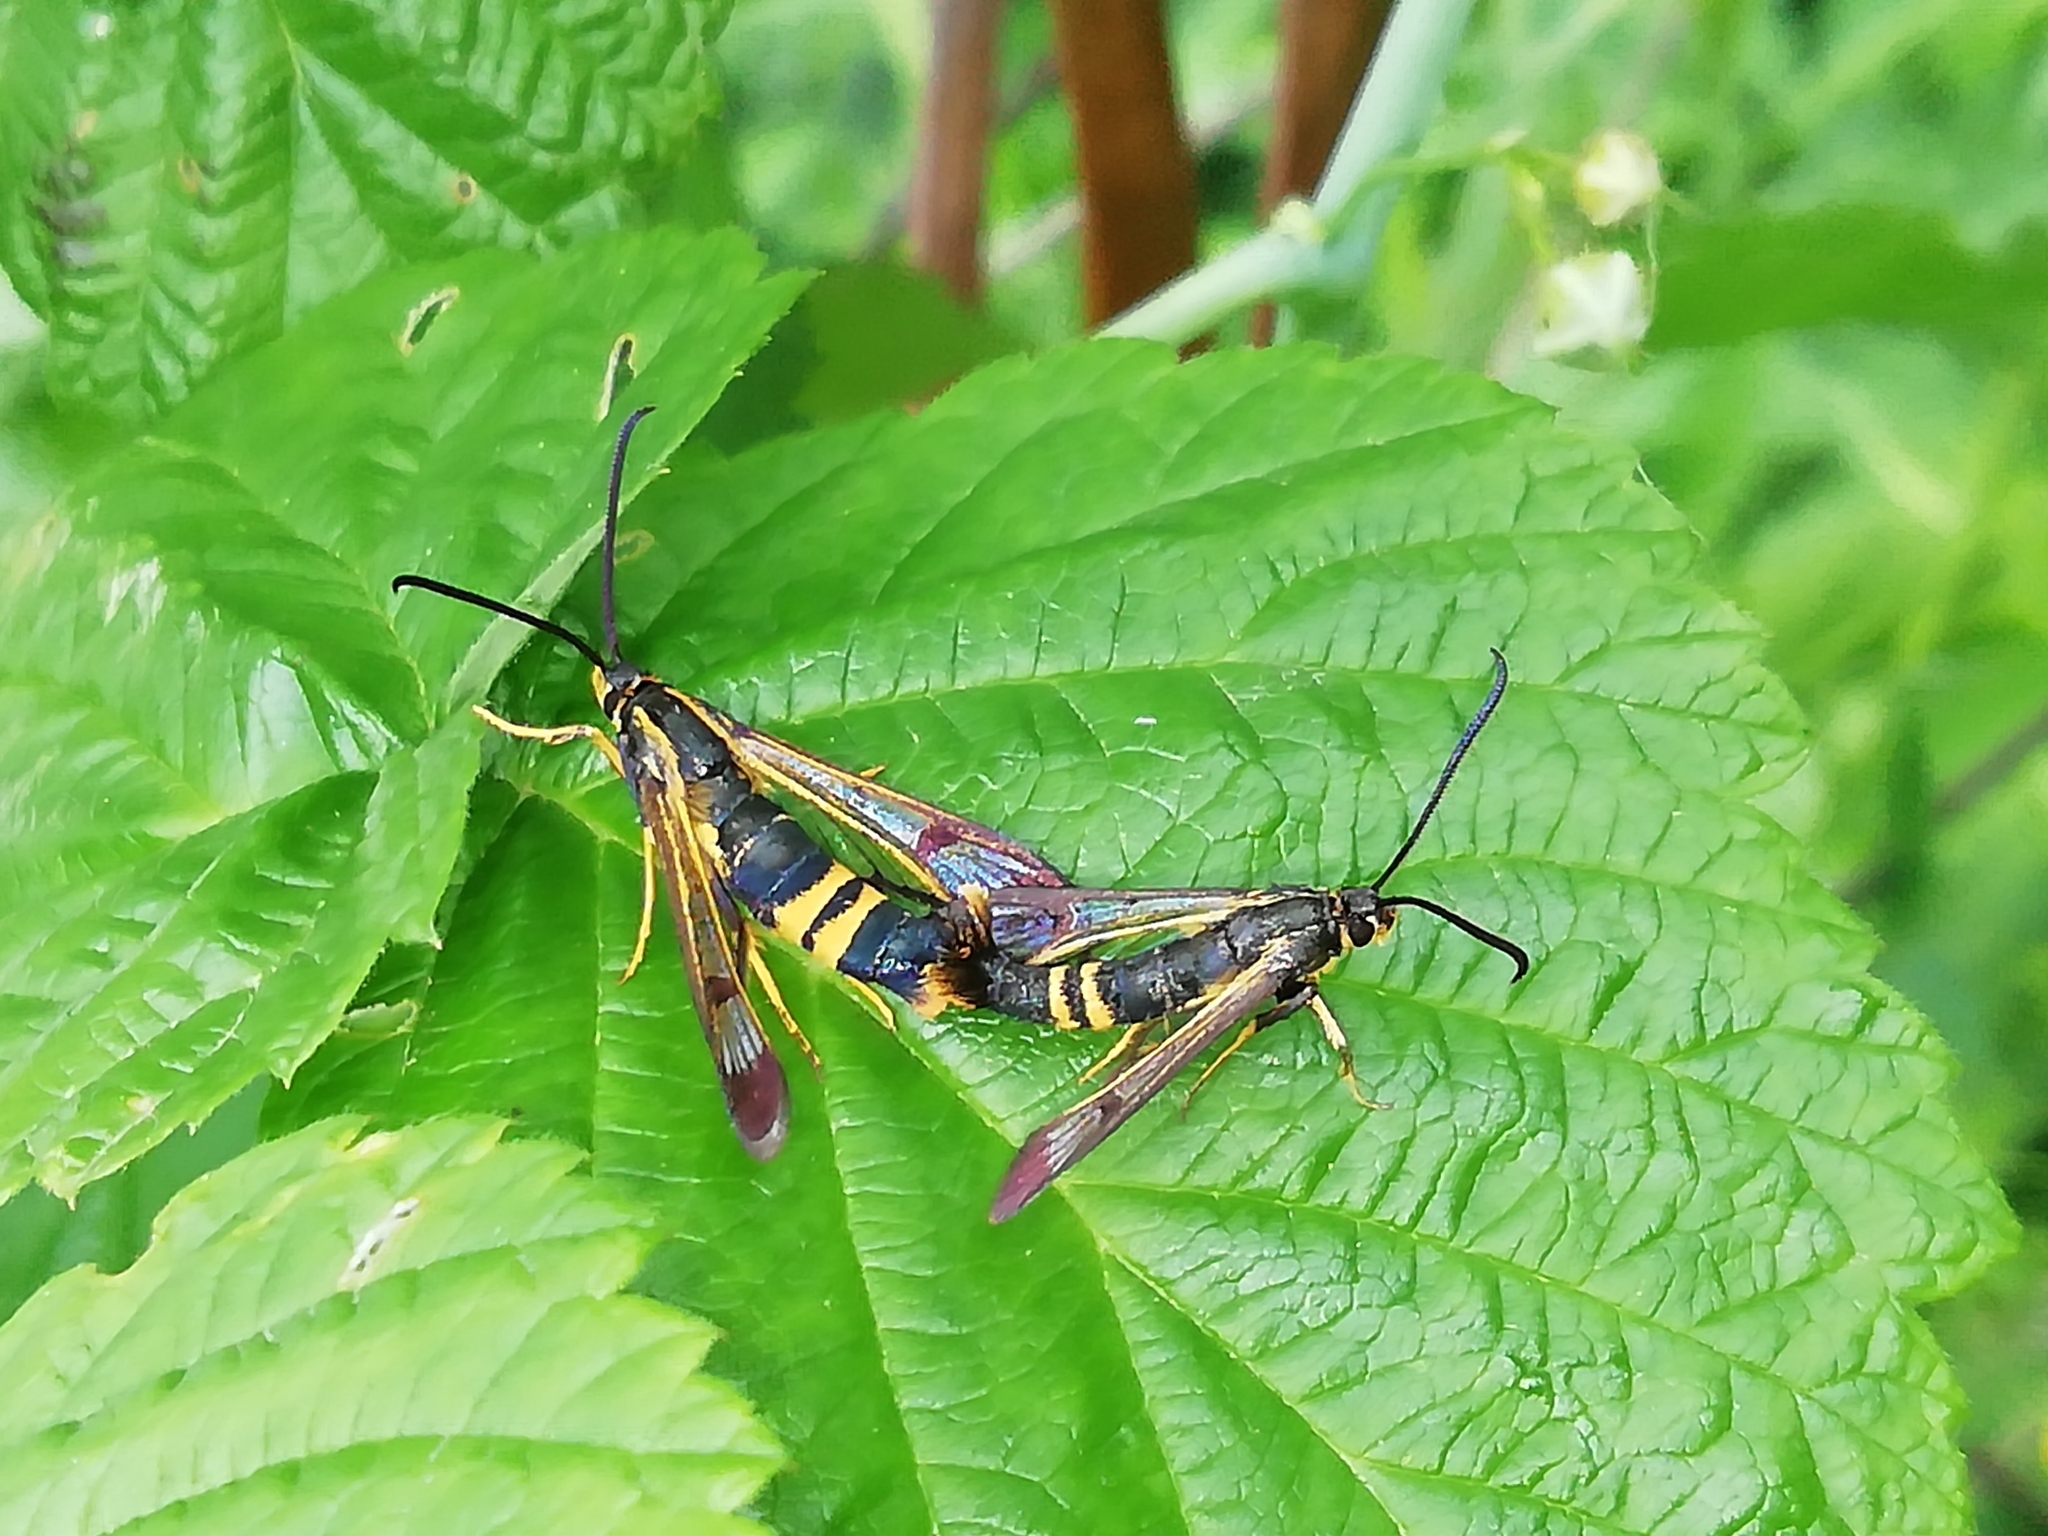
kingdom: Animalia
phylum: Arthropoda
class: Insecta
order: Lepidoptera
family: Sesiidae
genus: Synanthedon
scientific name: Synanthedon altaica
